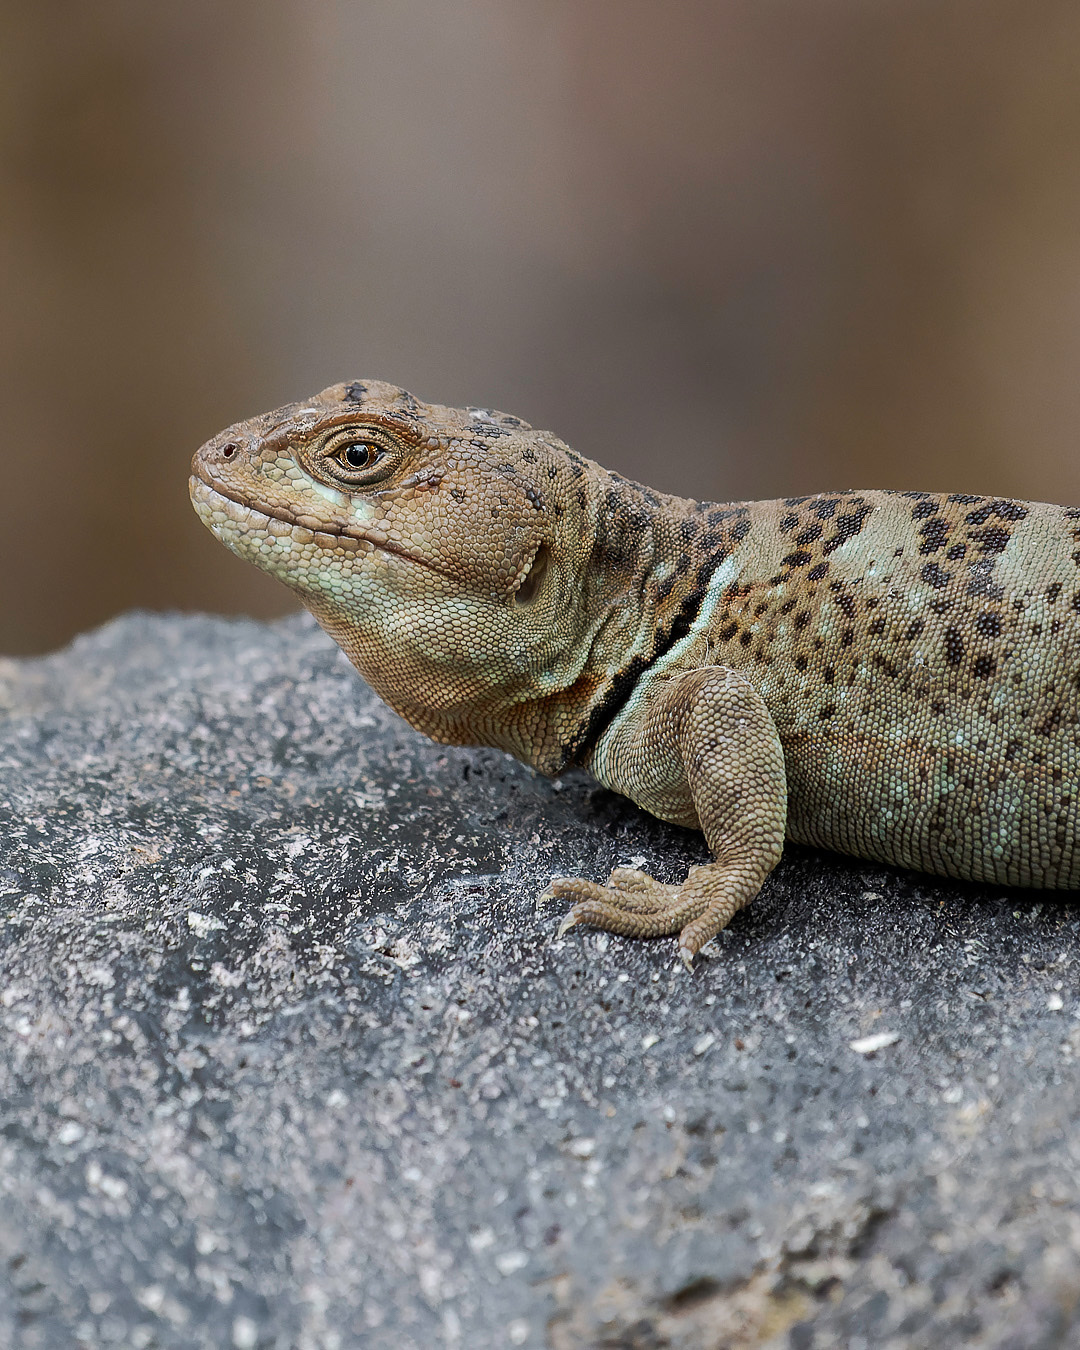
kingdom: Animalia
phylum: Chordata
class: Squamata
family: Leiosauridae
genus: Pristidactylus
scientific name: Pristidactylus torquatus
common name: Southern grumbler
